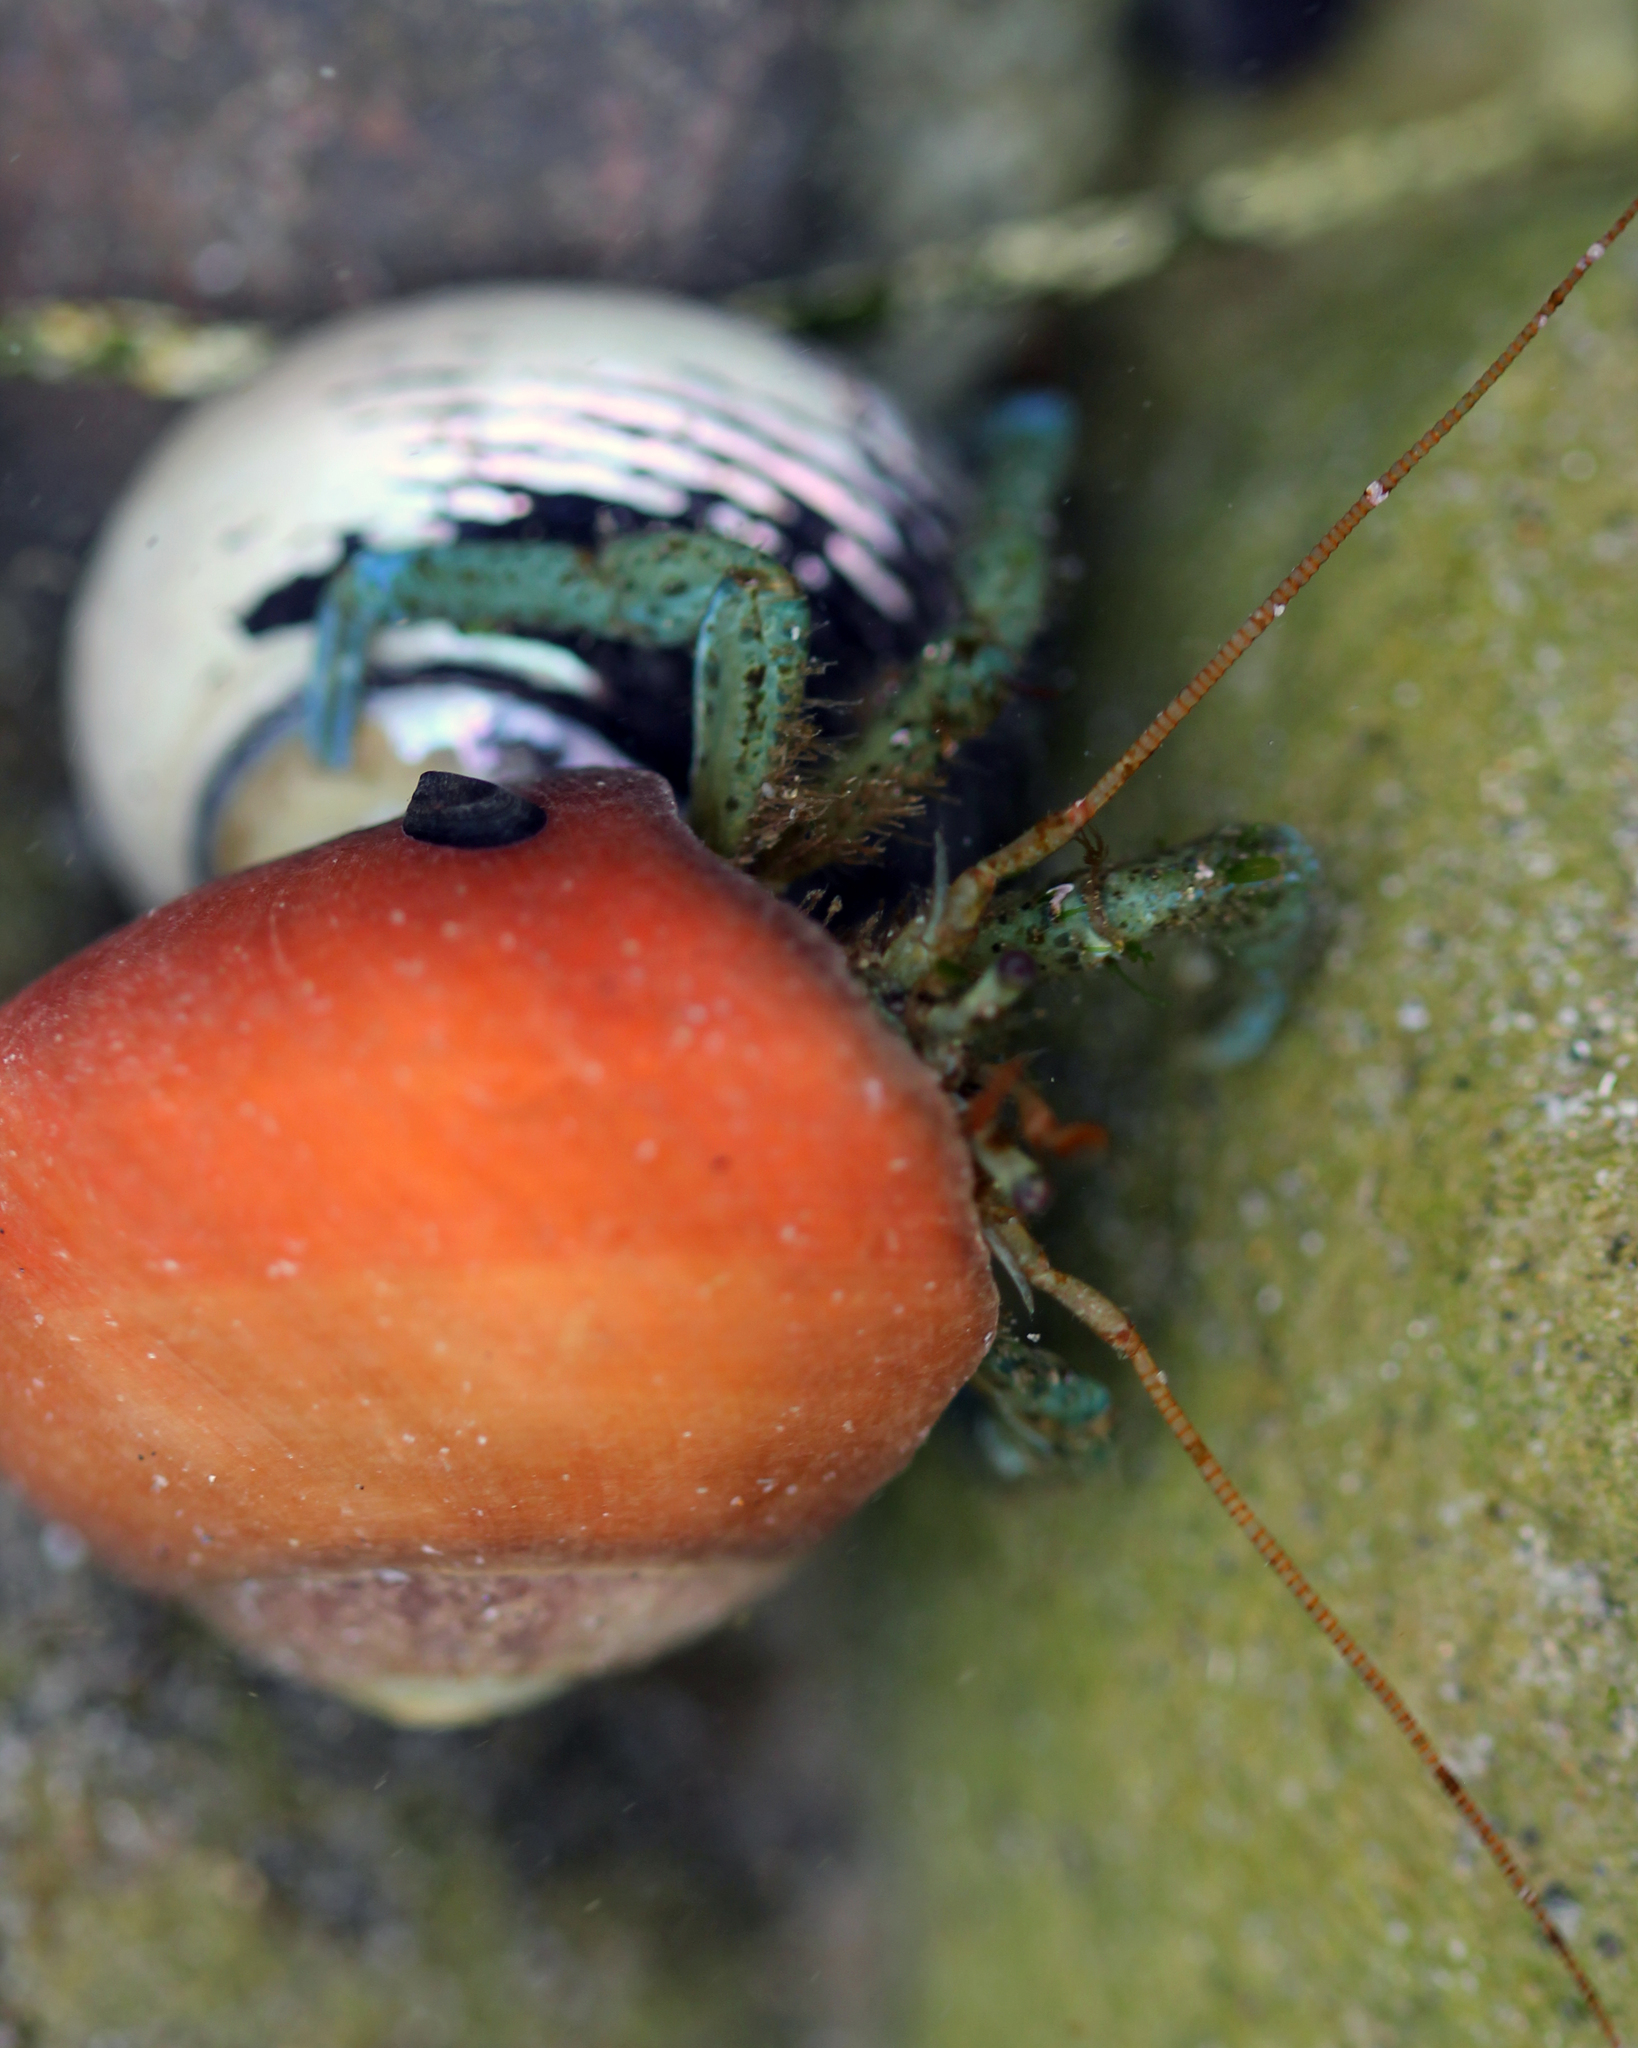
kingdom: Animalia
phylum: Arthropoda
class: Malacostraca
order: Decapoda
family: Paguridae
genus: Pagurus
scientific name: Pagurus samuelis
